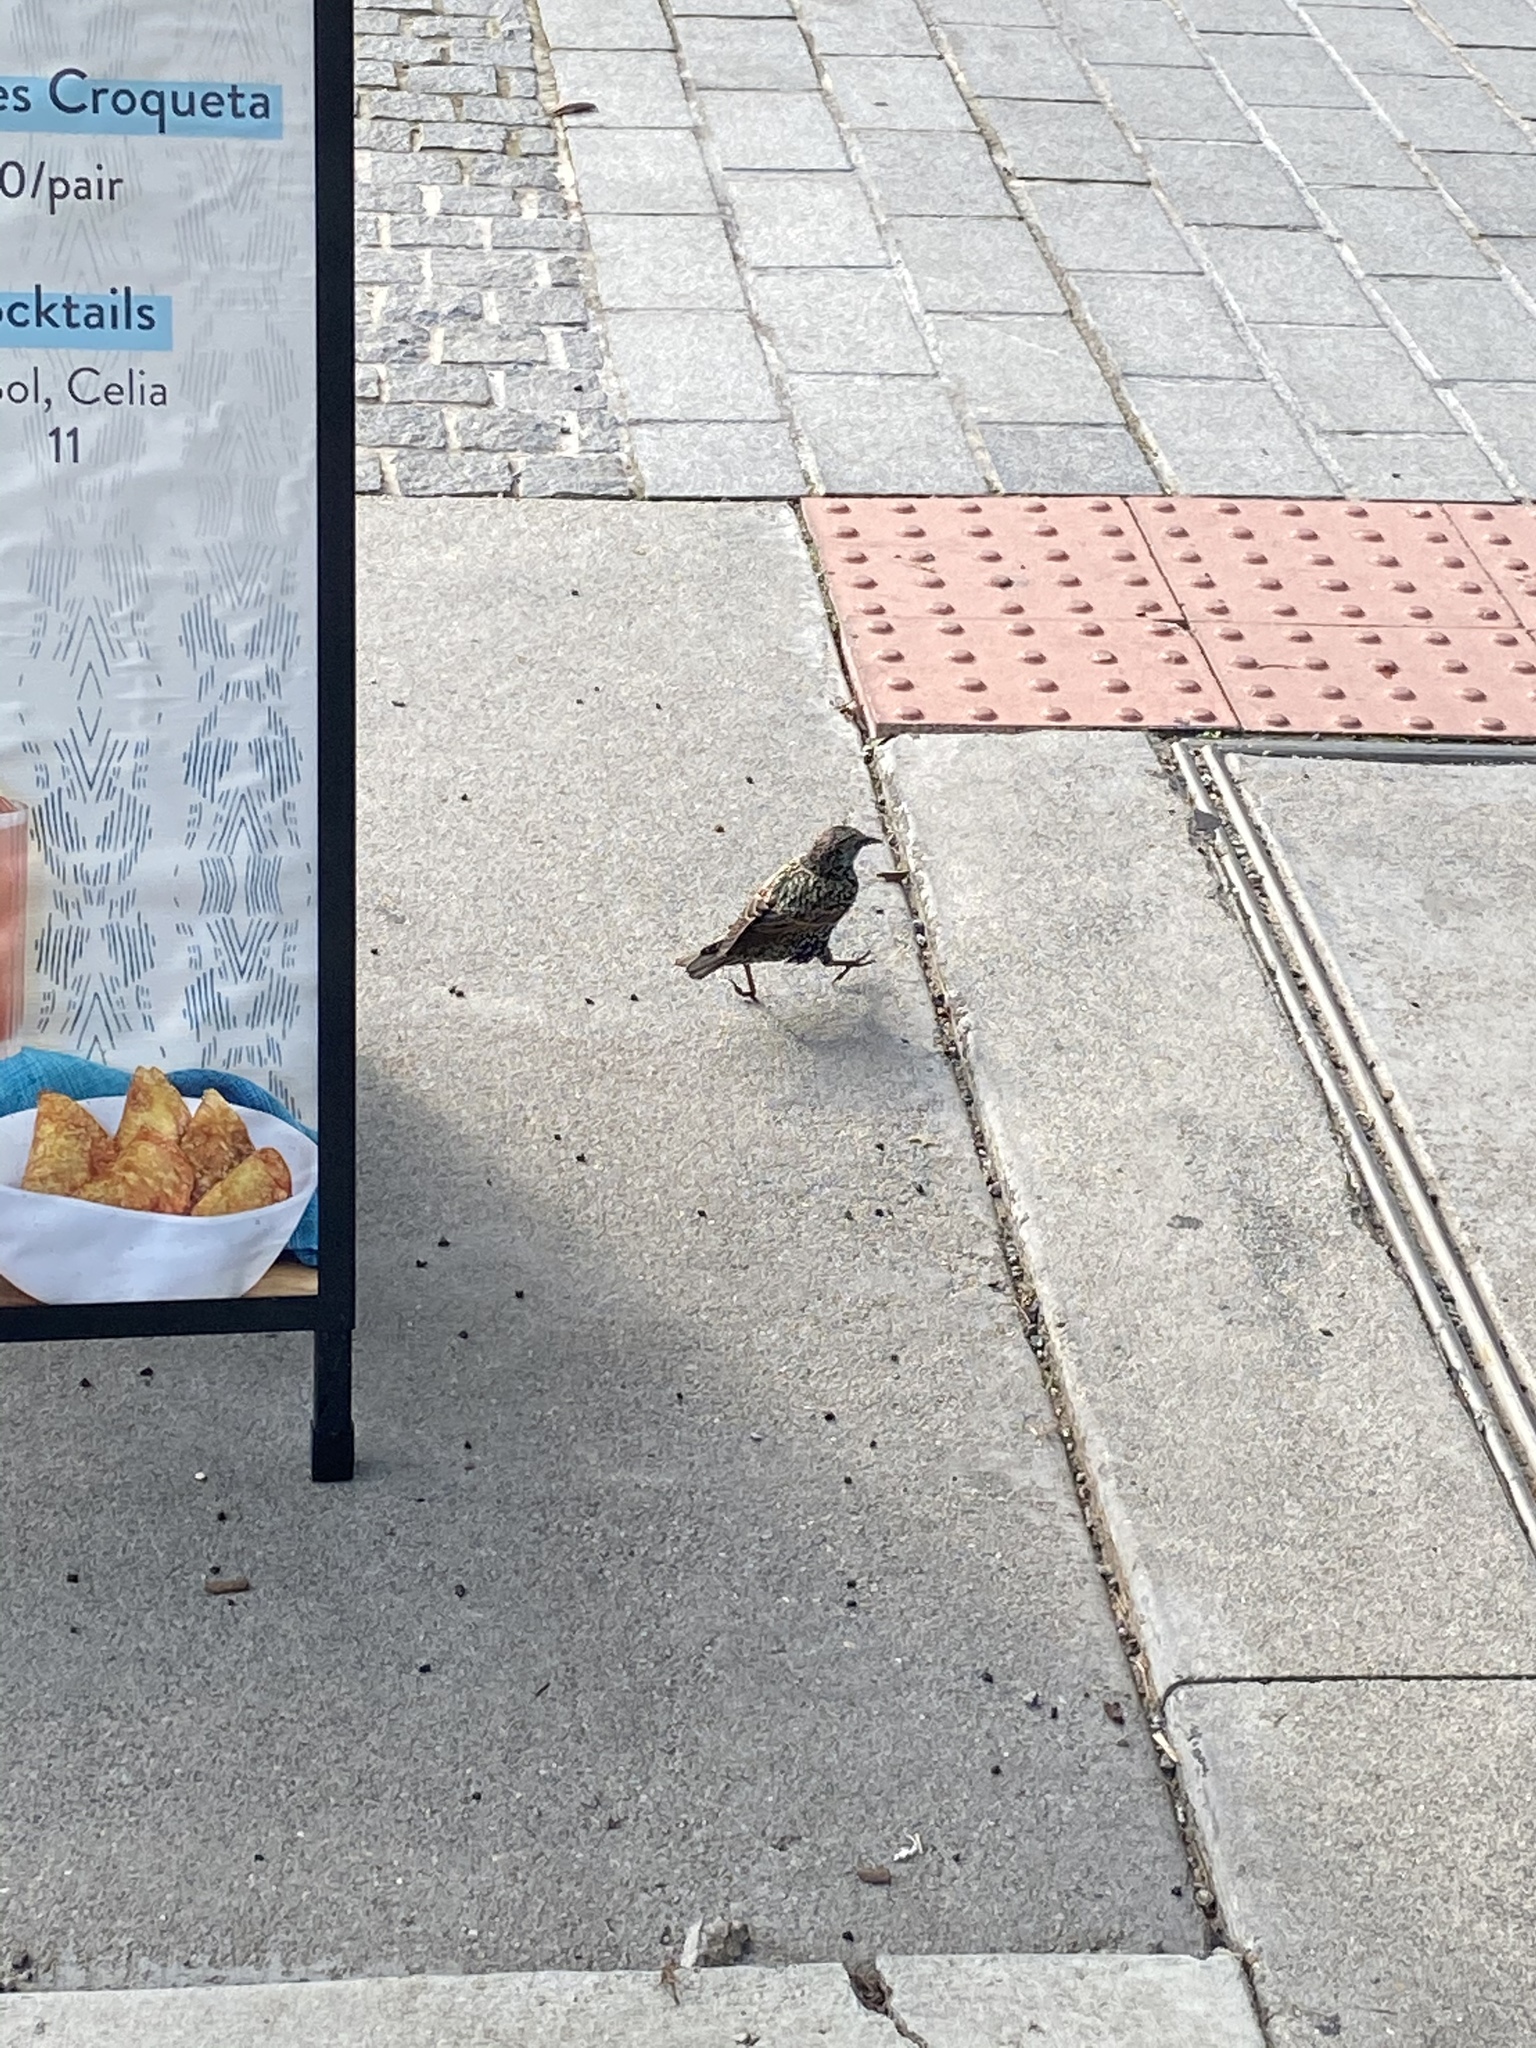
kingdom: Animalia
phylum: Chordata
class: Aves
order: Passeriformes
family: Sturnidae
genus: Sturnus
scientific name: Sturnus vulgaris
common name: Common starling
